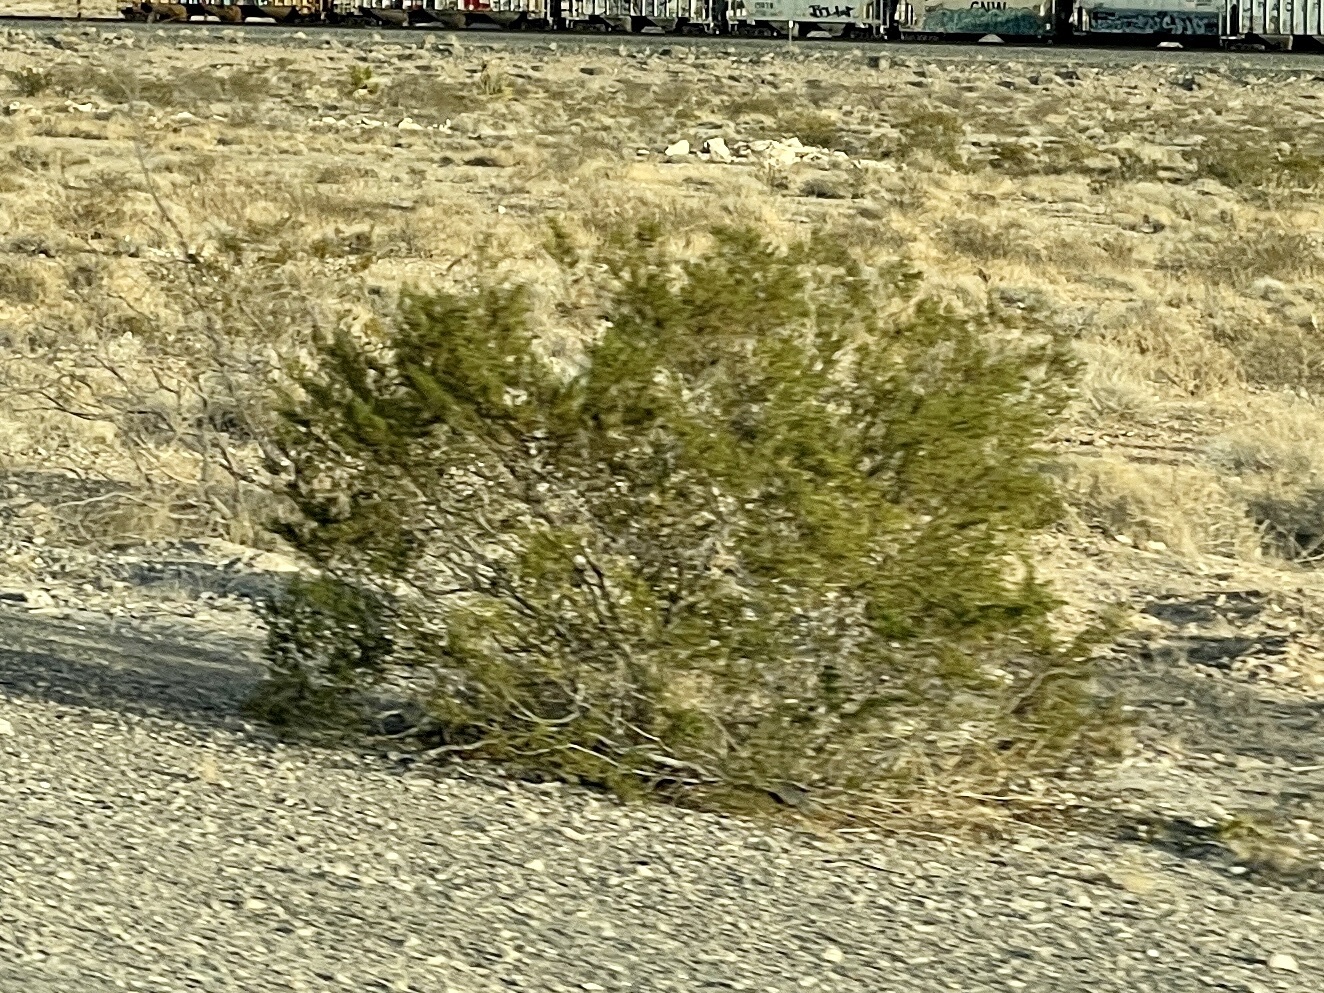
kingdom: Plantae
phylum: Tracheophyta
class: Magnoliopsida
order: Zygophyllales
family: Zygophyllaceae
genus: Larrea
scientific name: Larrea tridentata
